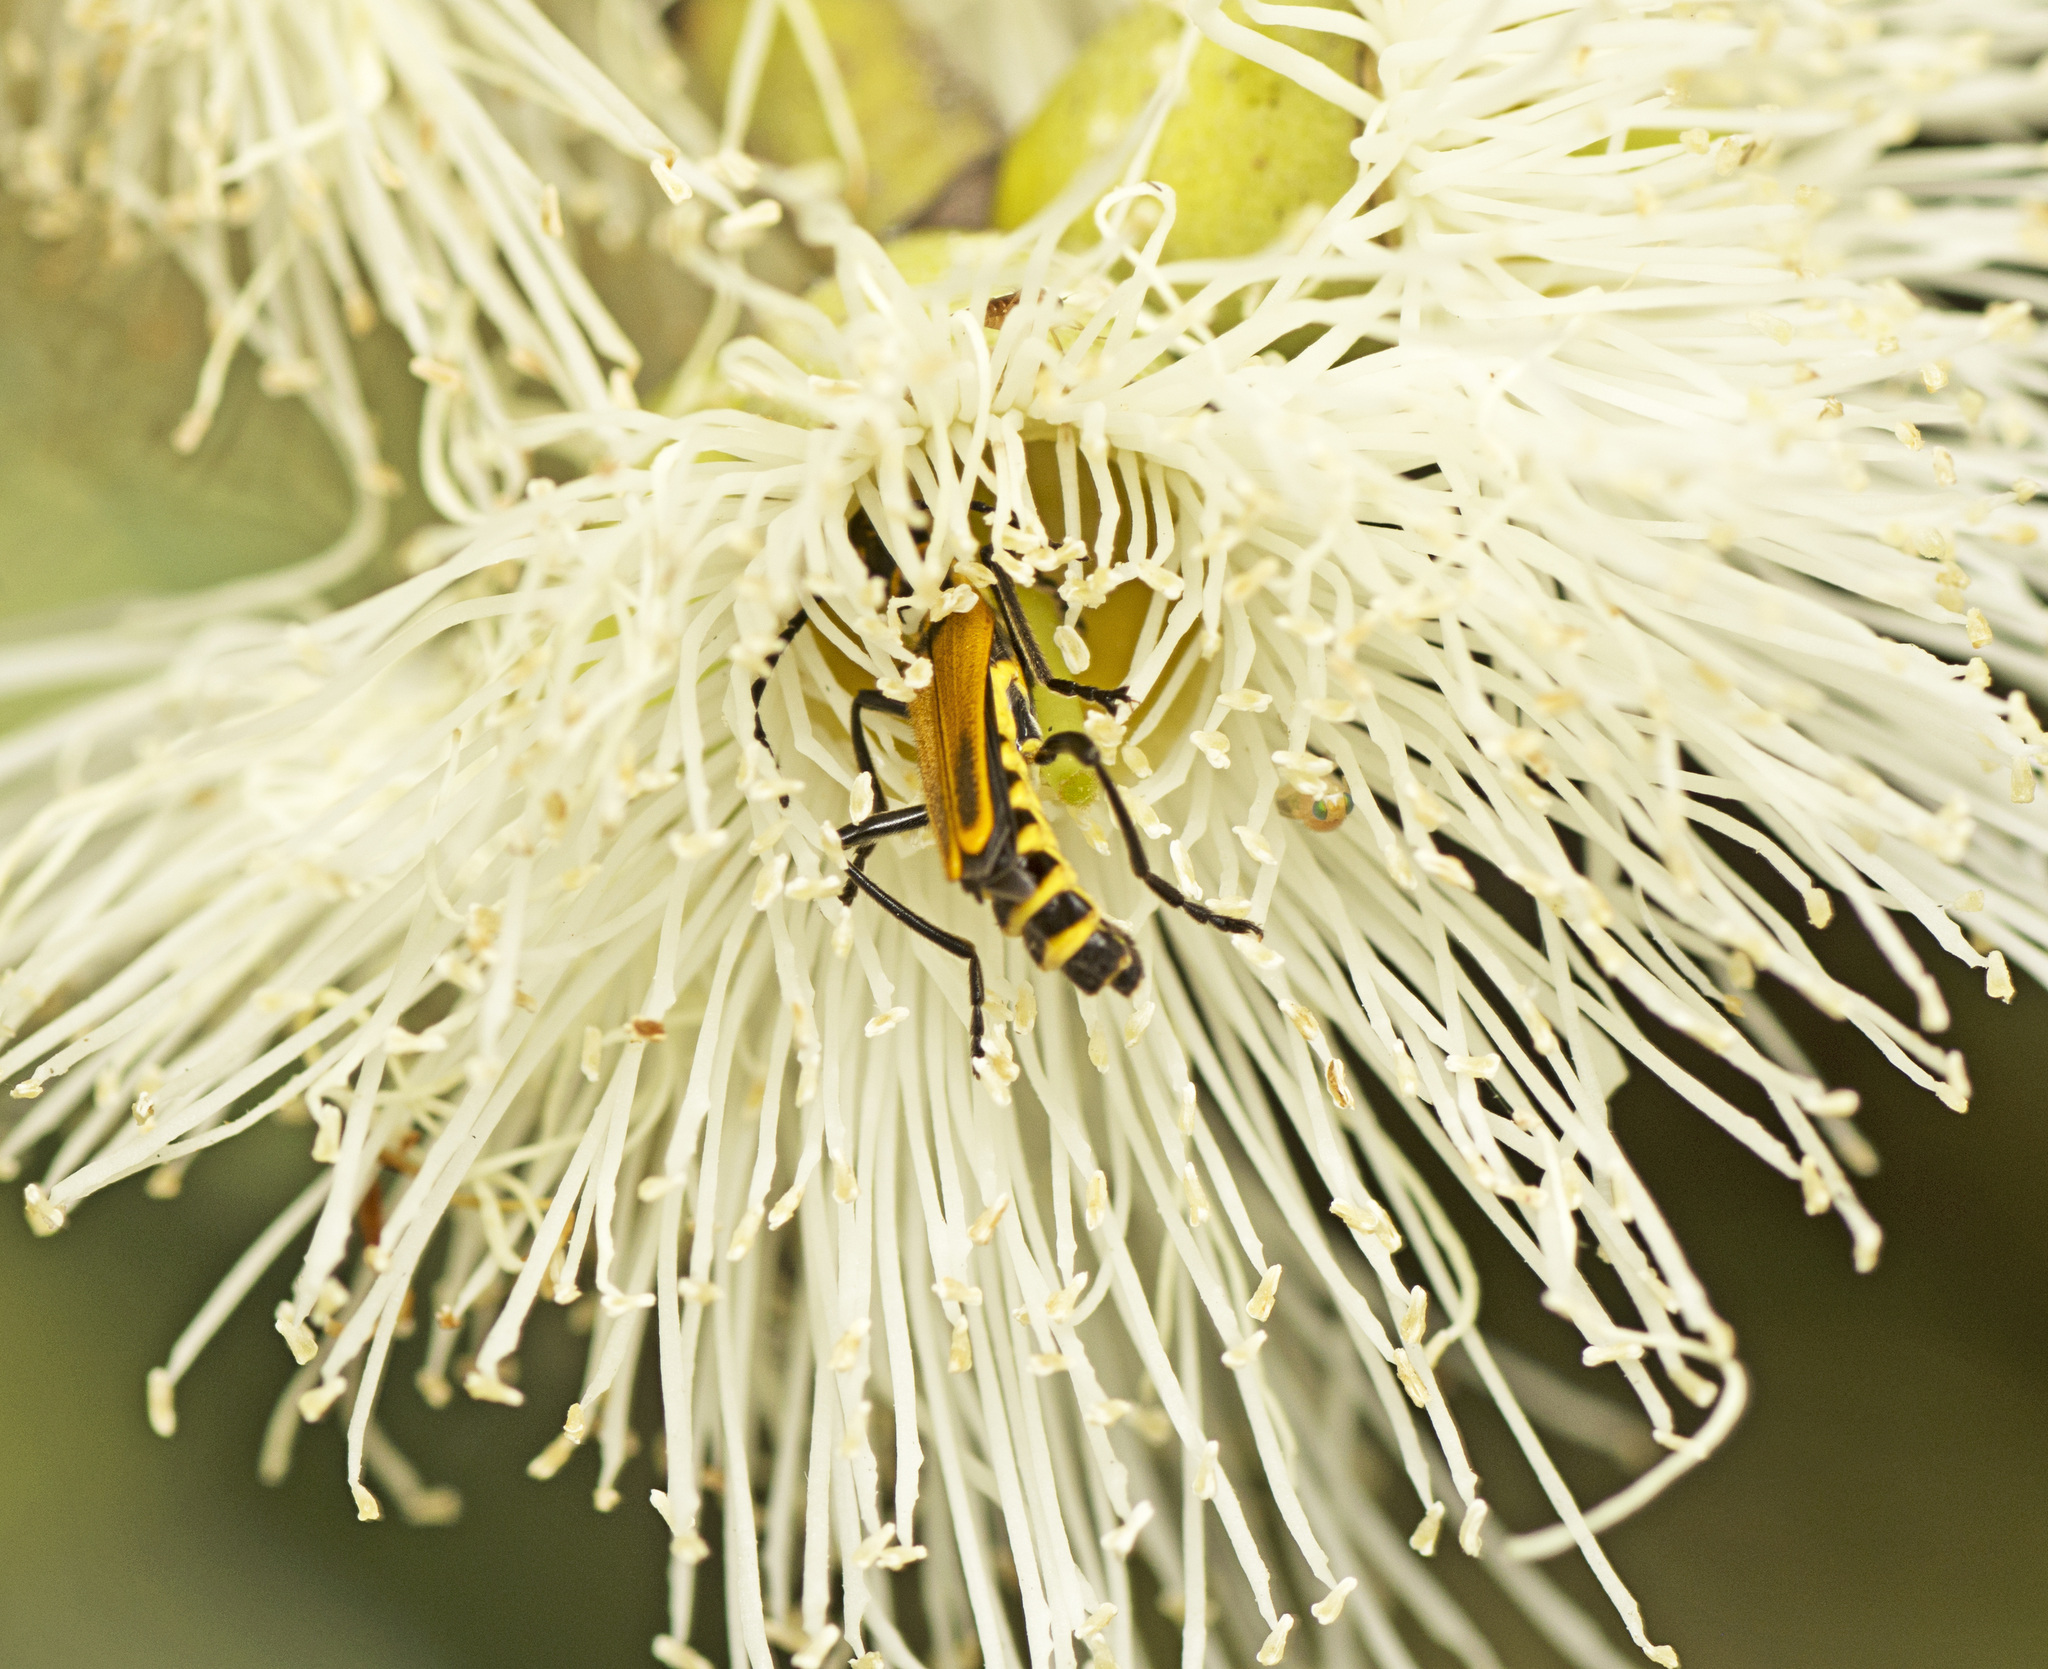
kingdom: Animalia
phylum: Arthropoda
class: Insecta
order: Coleoptera
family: Cantharidae
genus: Chauliognathus
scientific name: Chauliognathus
